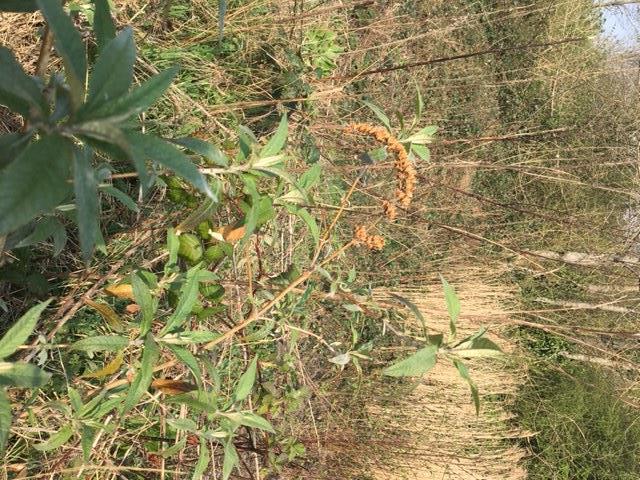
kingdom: Plantae
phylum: Tracheophyta
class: Magnoliopsida
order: Lamiales
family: Scrophulariaceae
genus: Buddleja
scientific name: Buddleja davidii
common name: Butterfly-bush
